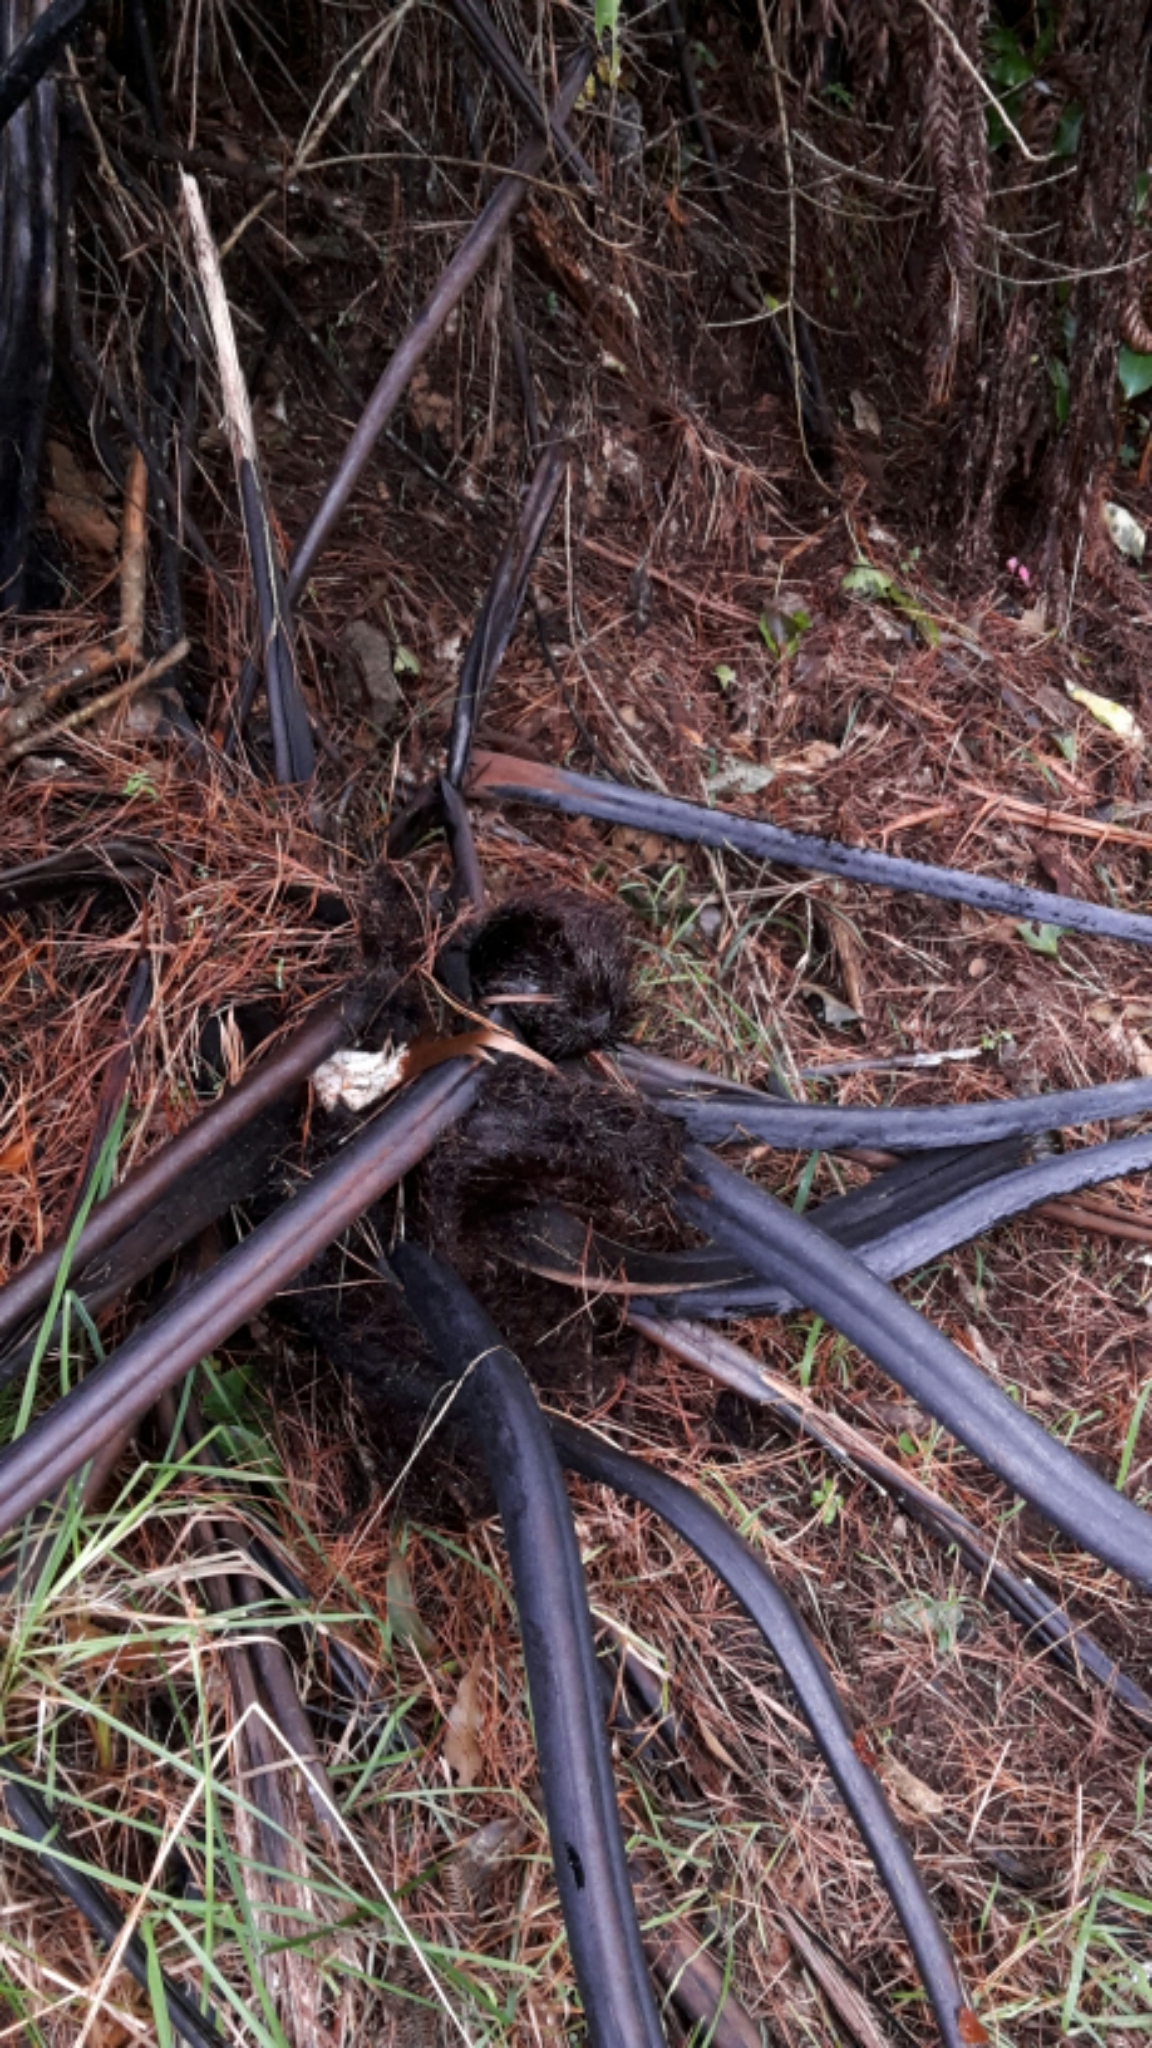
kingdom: Plantae
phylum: Tracheophyta
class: Polypodiopsida
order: Cyatheales
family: Cyatheaceae
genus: Sphaeropteris
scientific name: Sphaeropteris medullaris
